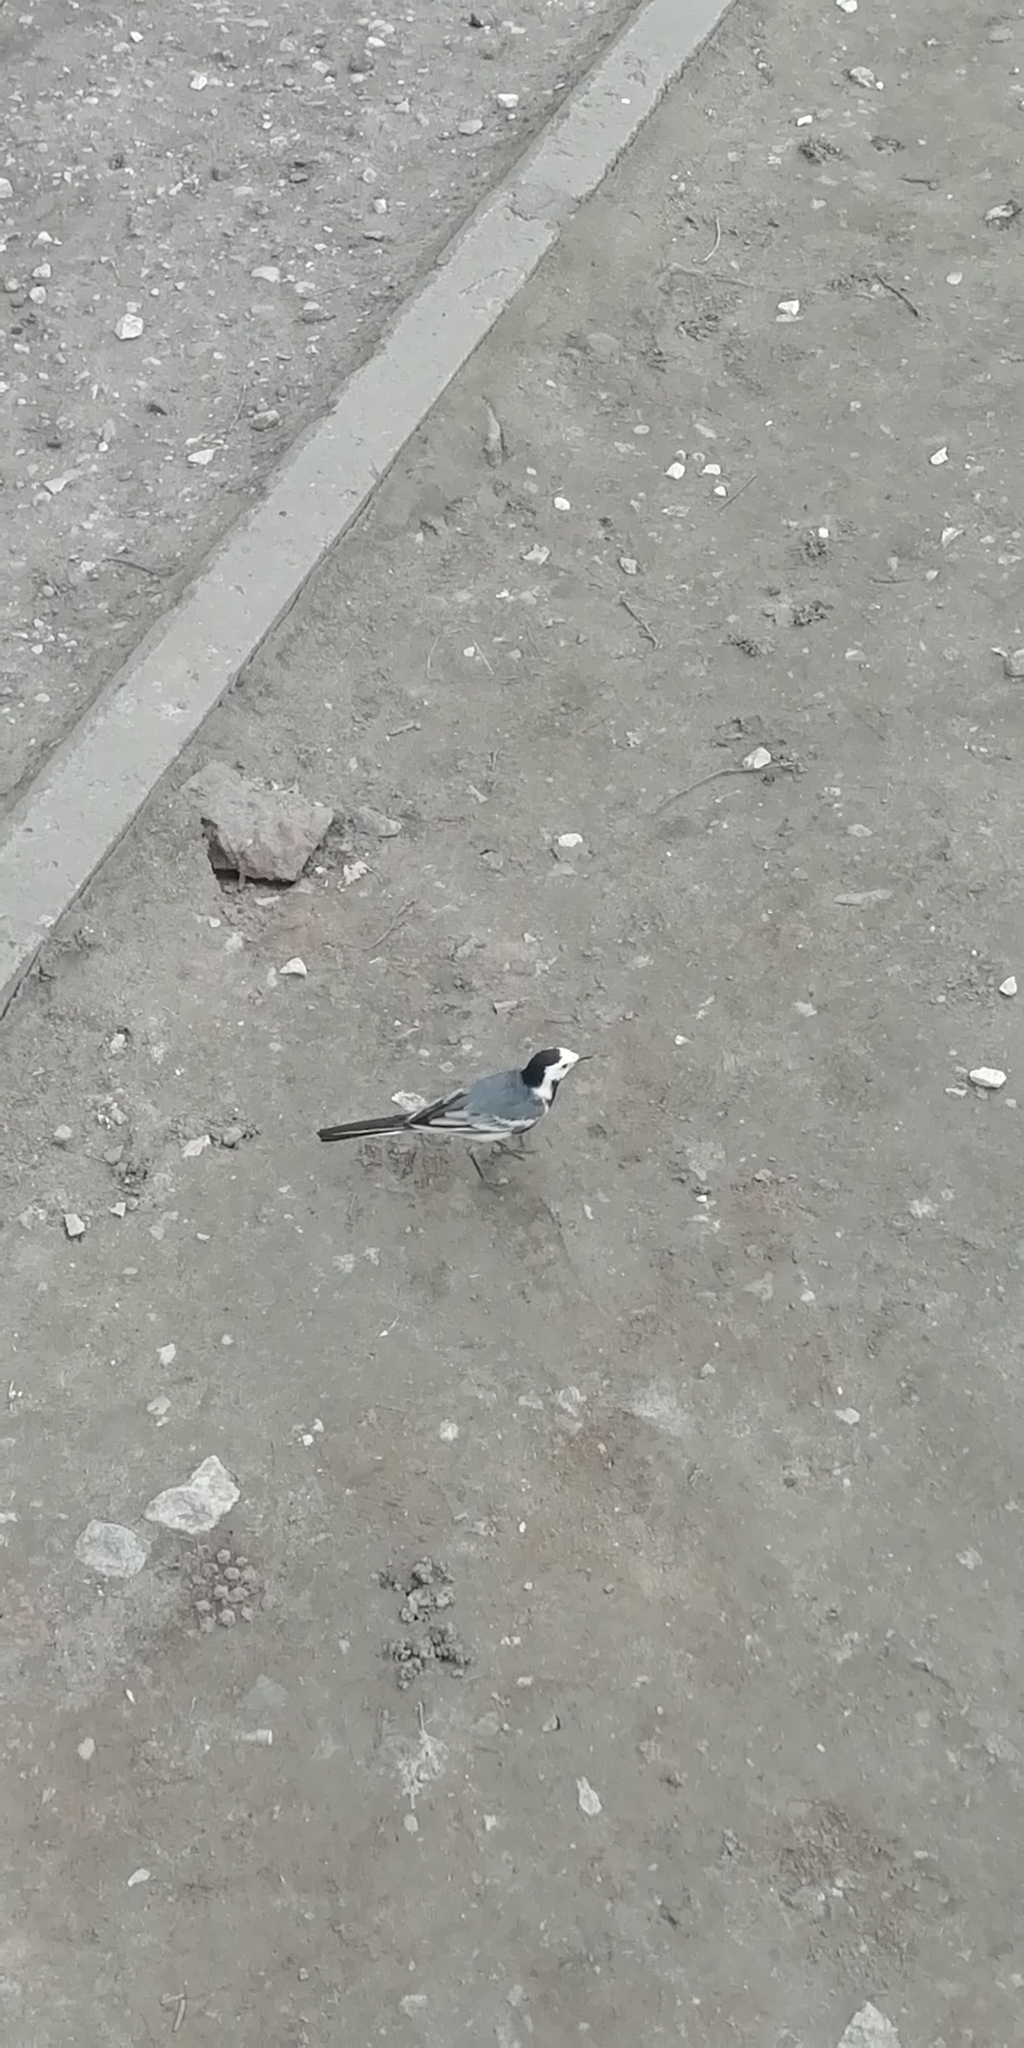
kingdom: Animalia
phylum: Chordata
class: Aves
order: Passeriformes
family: Motacillidae
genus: Motacilla
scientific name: Motacilla alba
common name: White wagtail
